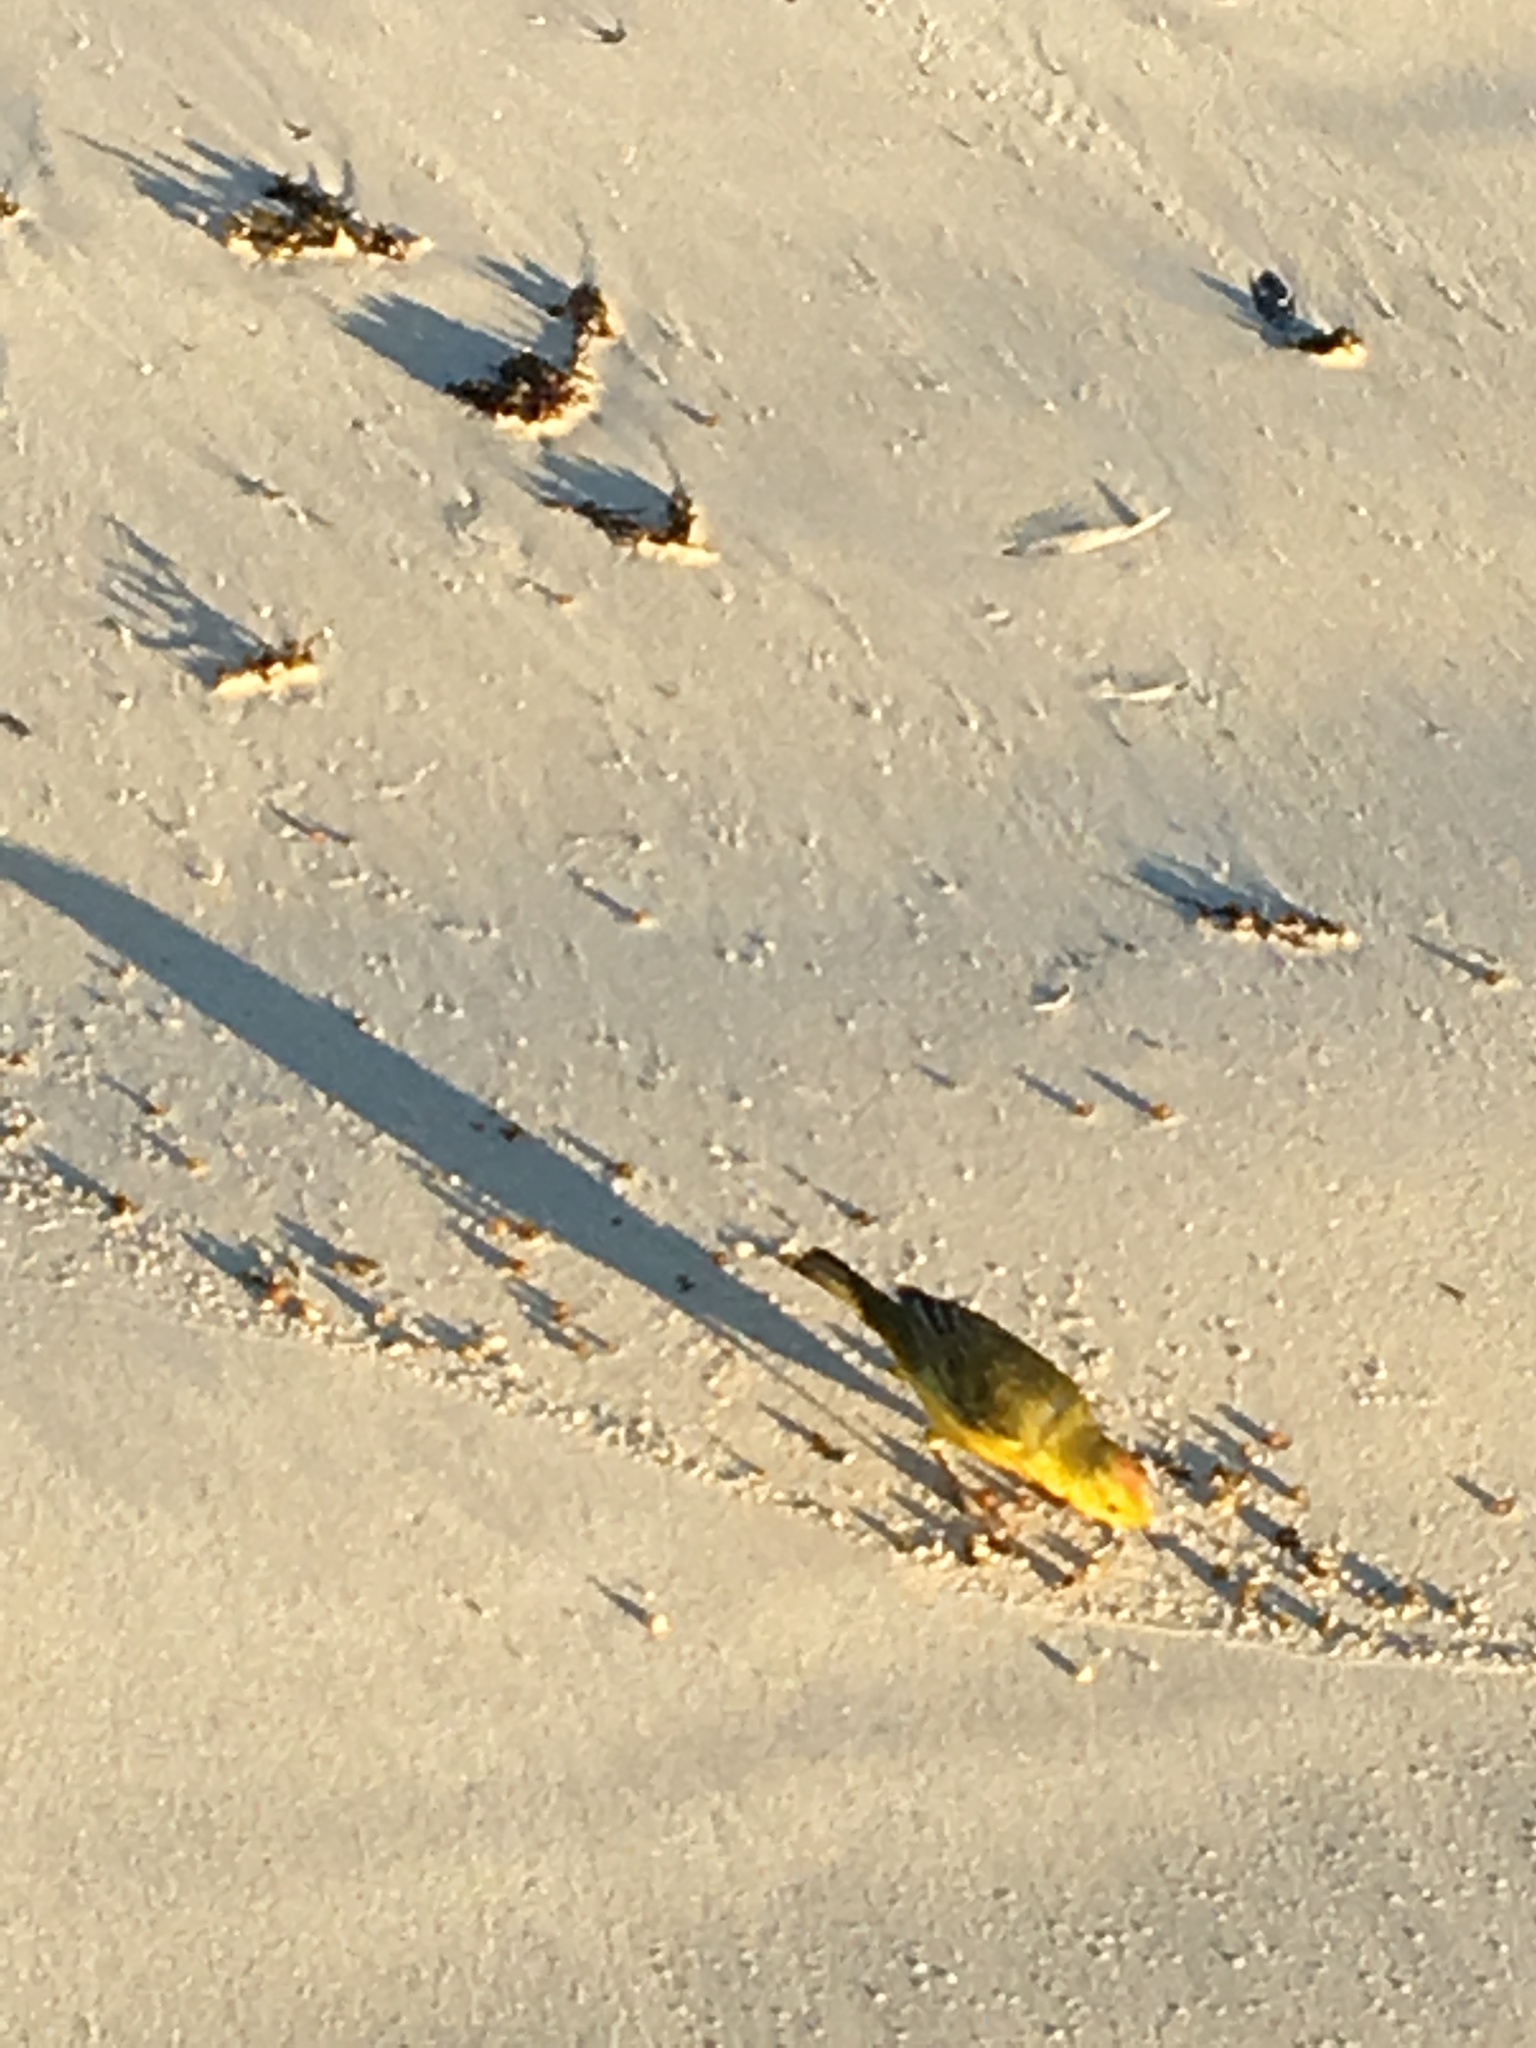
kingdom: Animalia
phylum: Chordata
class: Aves
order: Passeriformes
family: Parulidae
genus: Setophaga
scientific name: Setophaga petechia
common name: Yellow warbler
